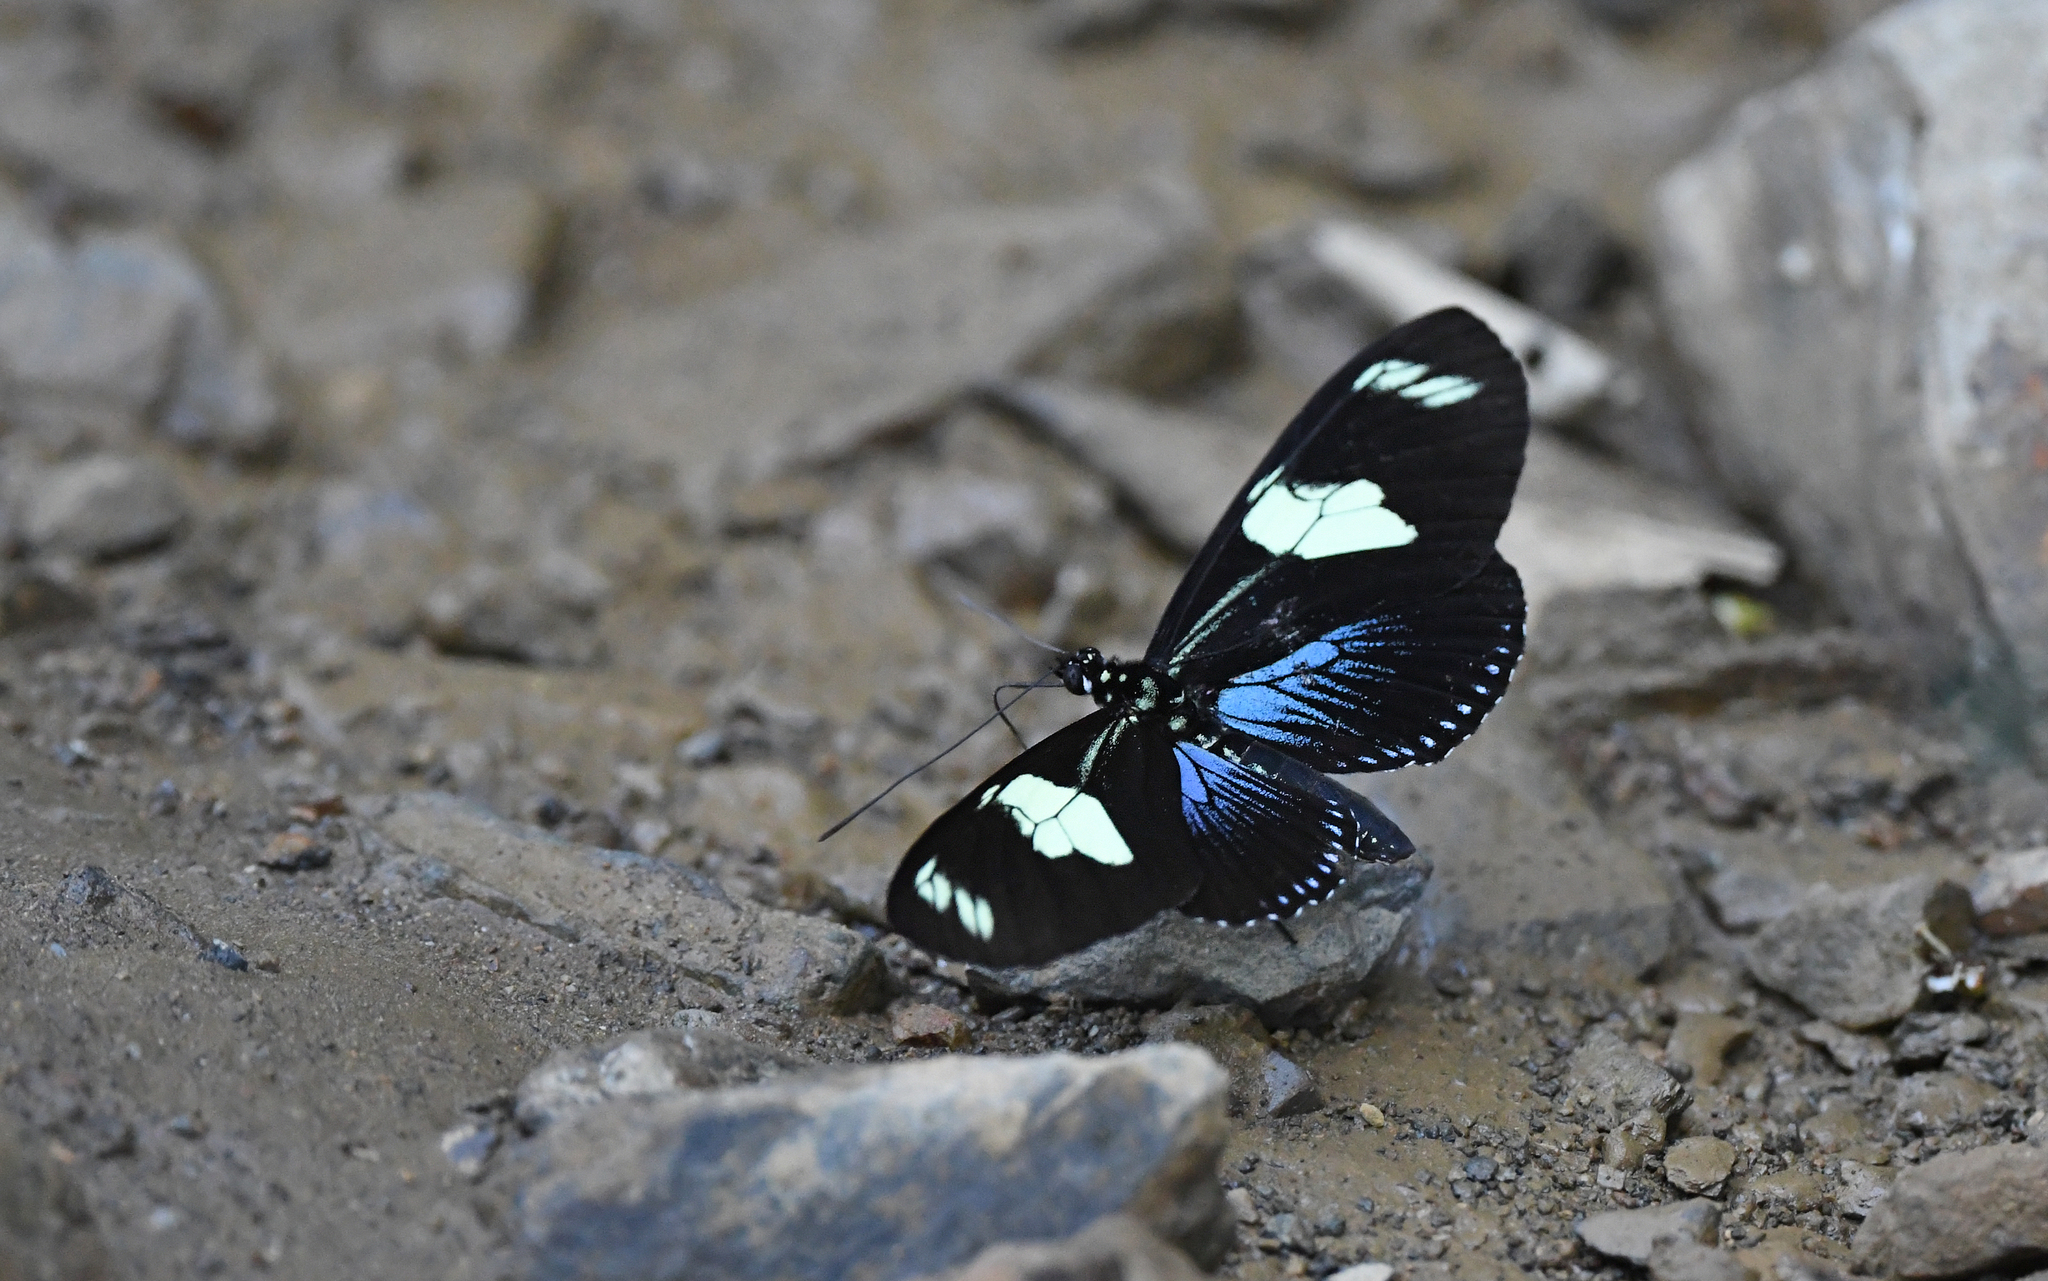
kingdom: Animalia
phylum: Arthropoda
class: Insecta
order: Lepidoptera
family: Nymphalidae
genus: Heliconius
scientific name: Heliconius doris
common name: Doris longwing
